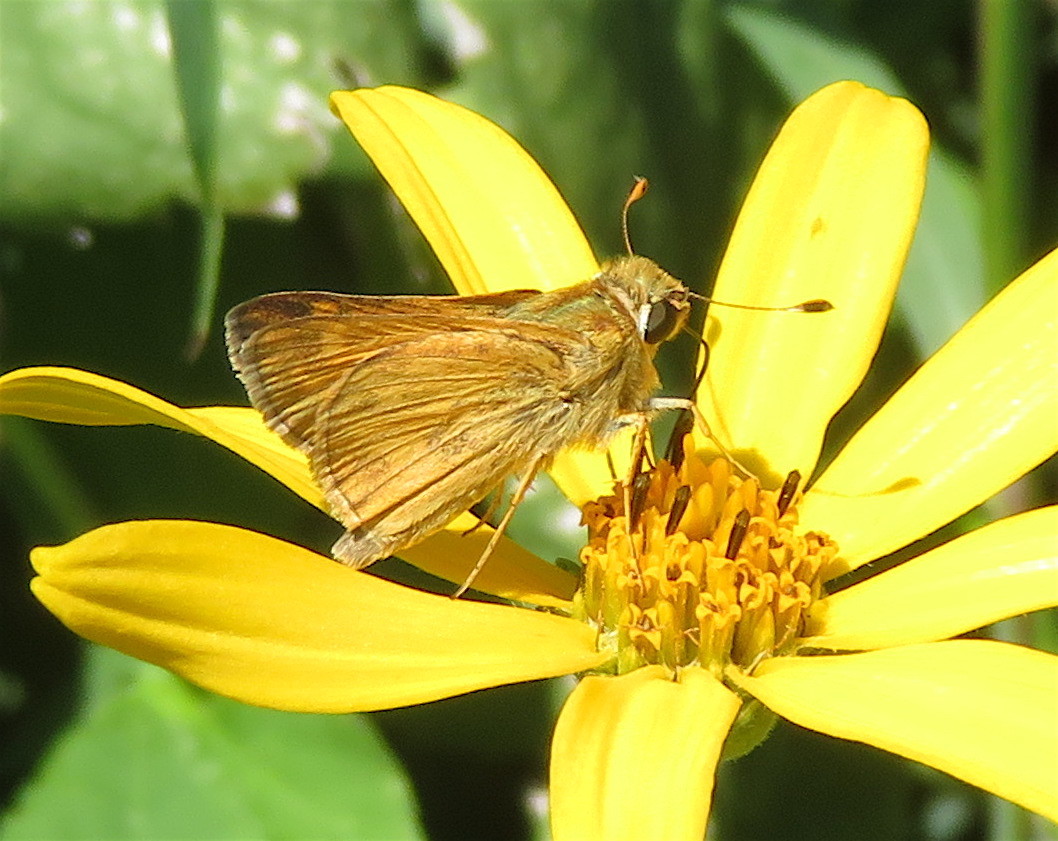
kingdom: Animalia
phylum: Arthropoda
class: Insecta
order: Lepidoptera
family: Hesperiidae
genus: Atalopedes
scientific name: Atalopedes
